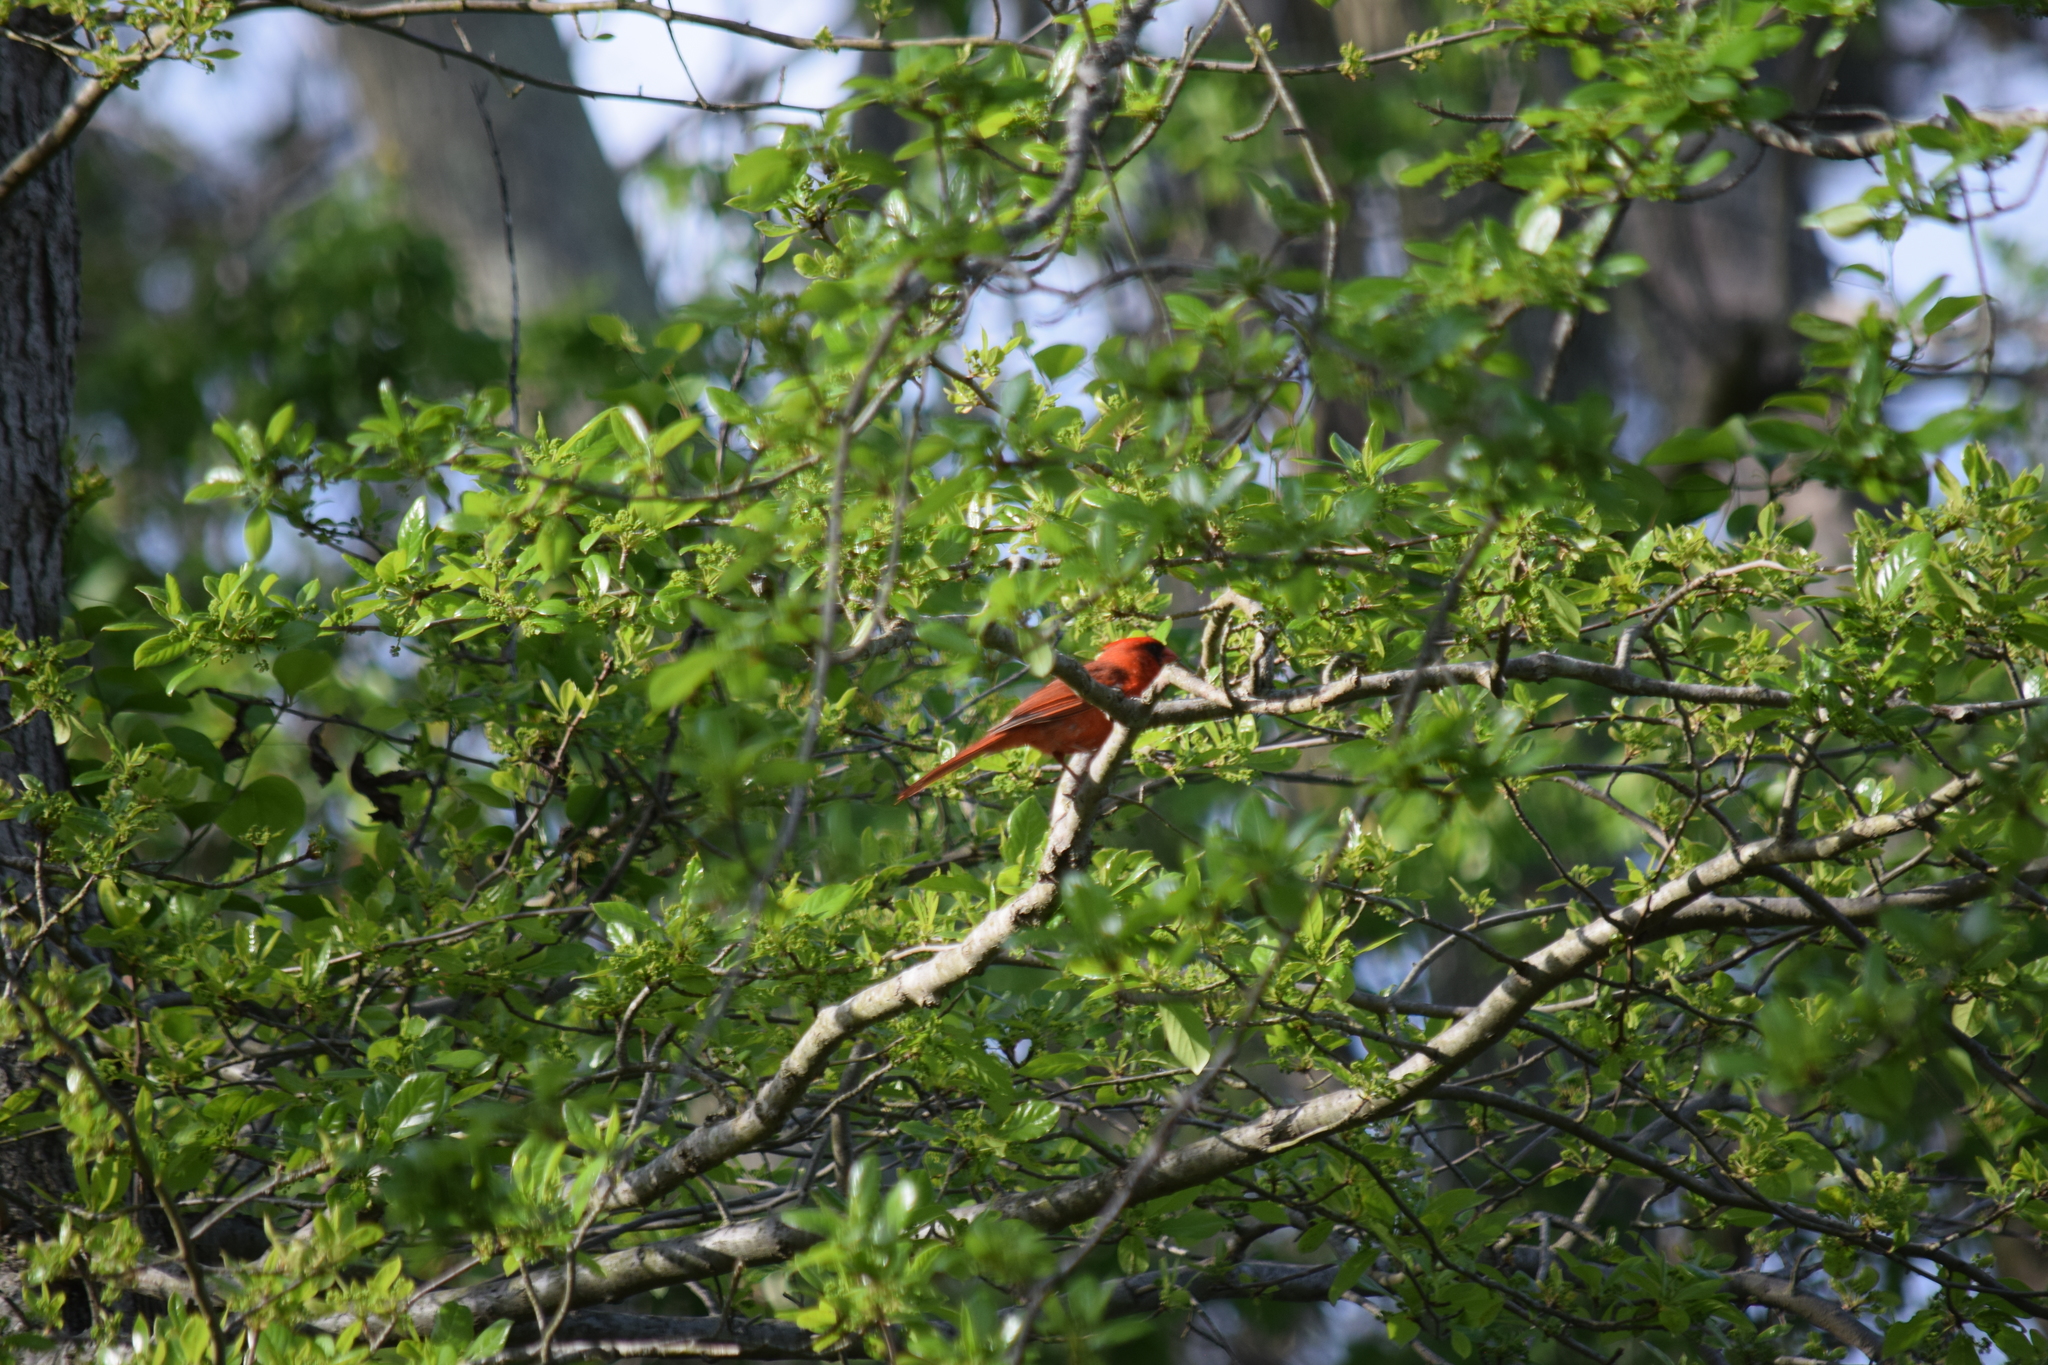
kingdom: Animalia
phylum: Chordata
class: Aves
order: Passeriformes
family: Cardinalidae
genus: Cardinalis
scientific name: Cardinalis cardinalis
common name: Northern cardinal
